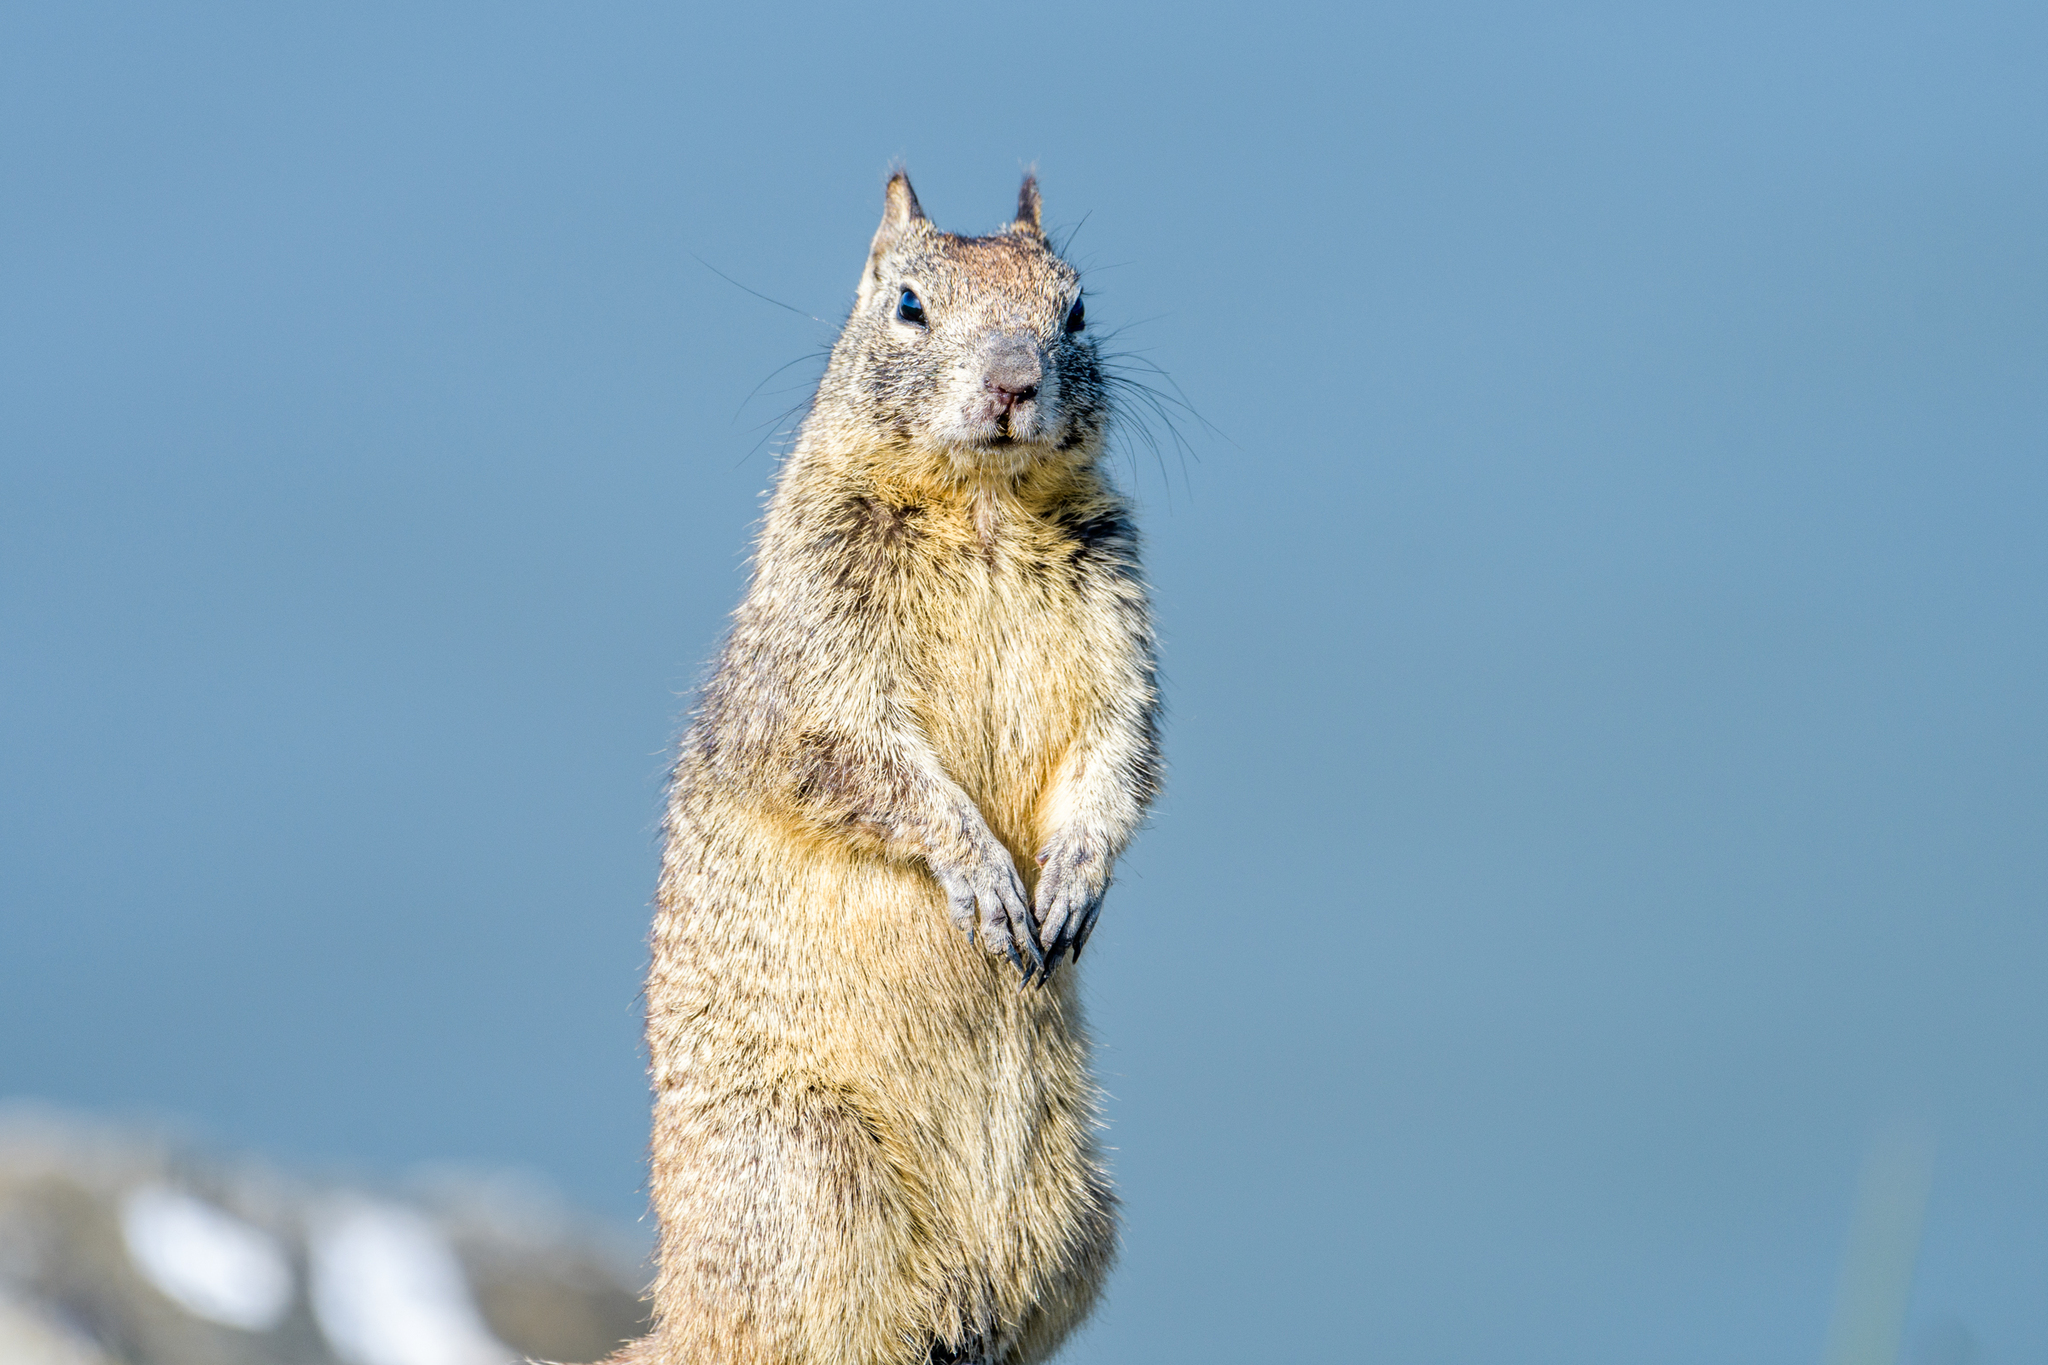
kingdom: Animalia
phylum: Chordata
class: Mammalia
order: Rodentia
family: Sciuridae
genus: Otospermophilus
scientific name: Otospermophilus beecheyi
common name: California ground squirrel
